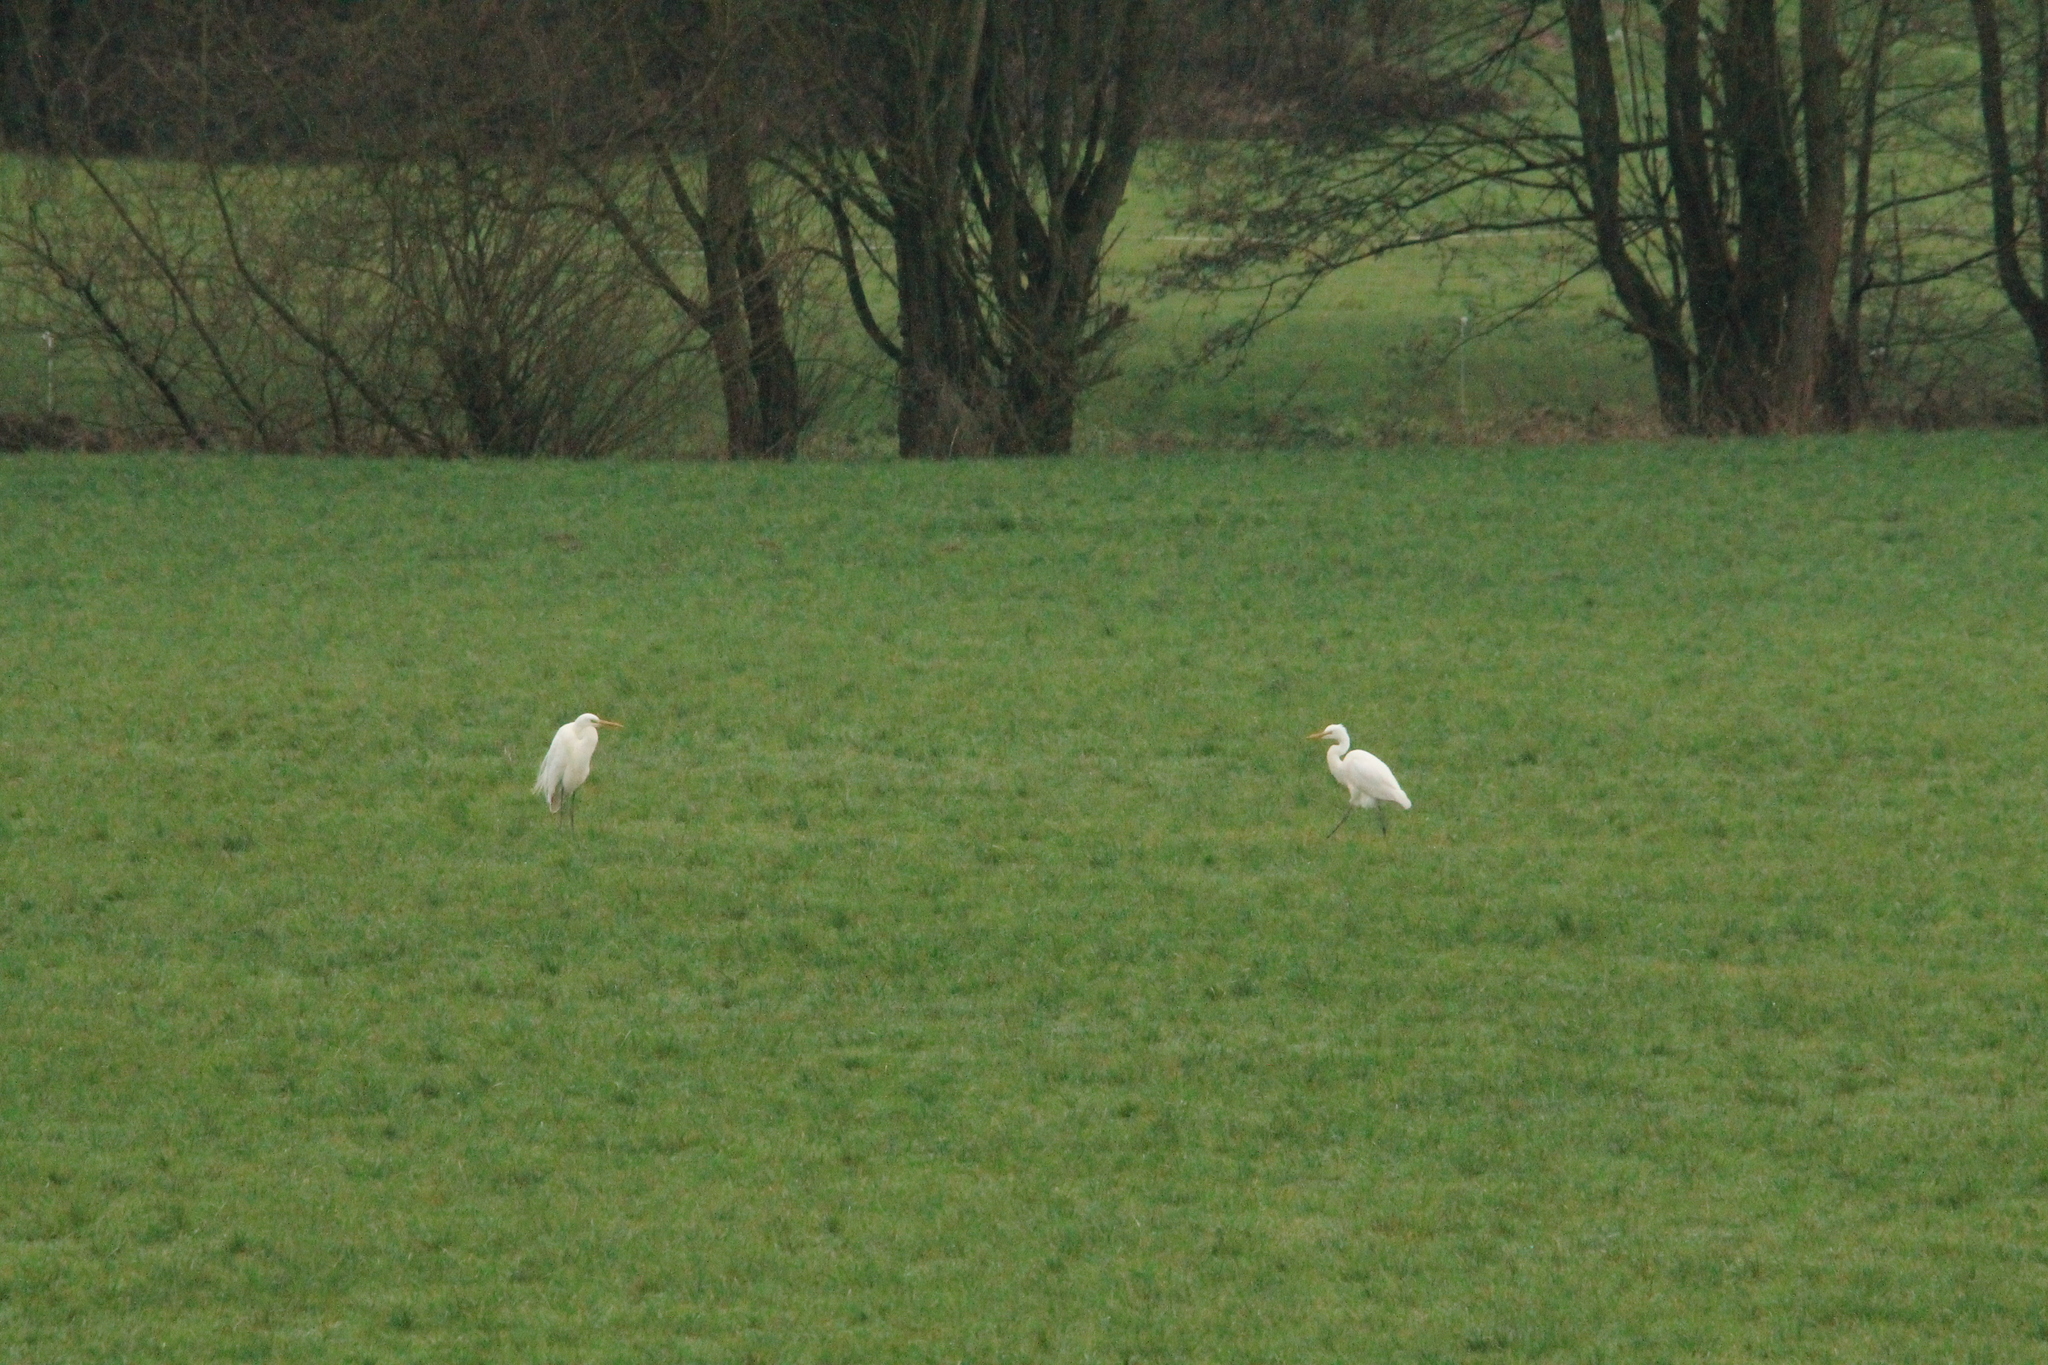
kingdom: Animalia
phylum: Chordata
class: Aves
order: Pelecaniformes
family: Ardeidae
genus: Ardea
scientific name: Ardea alba
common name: Great egret
